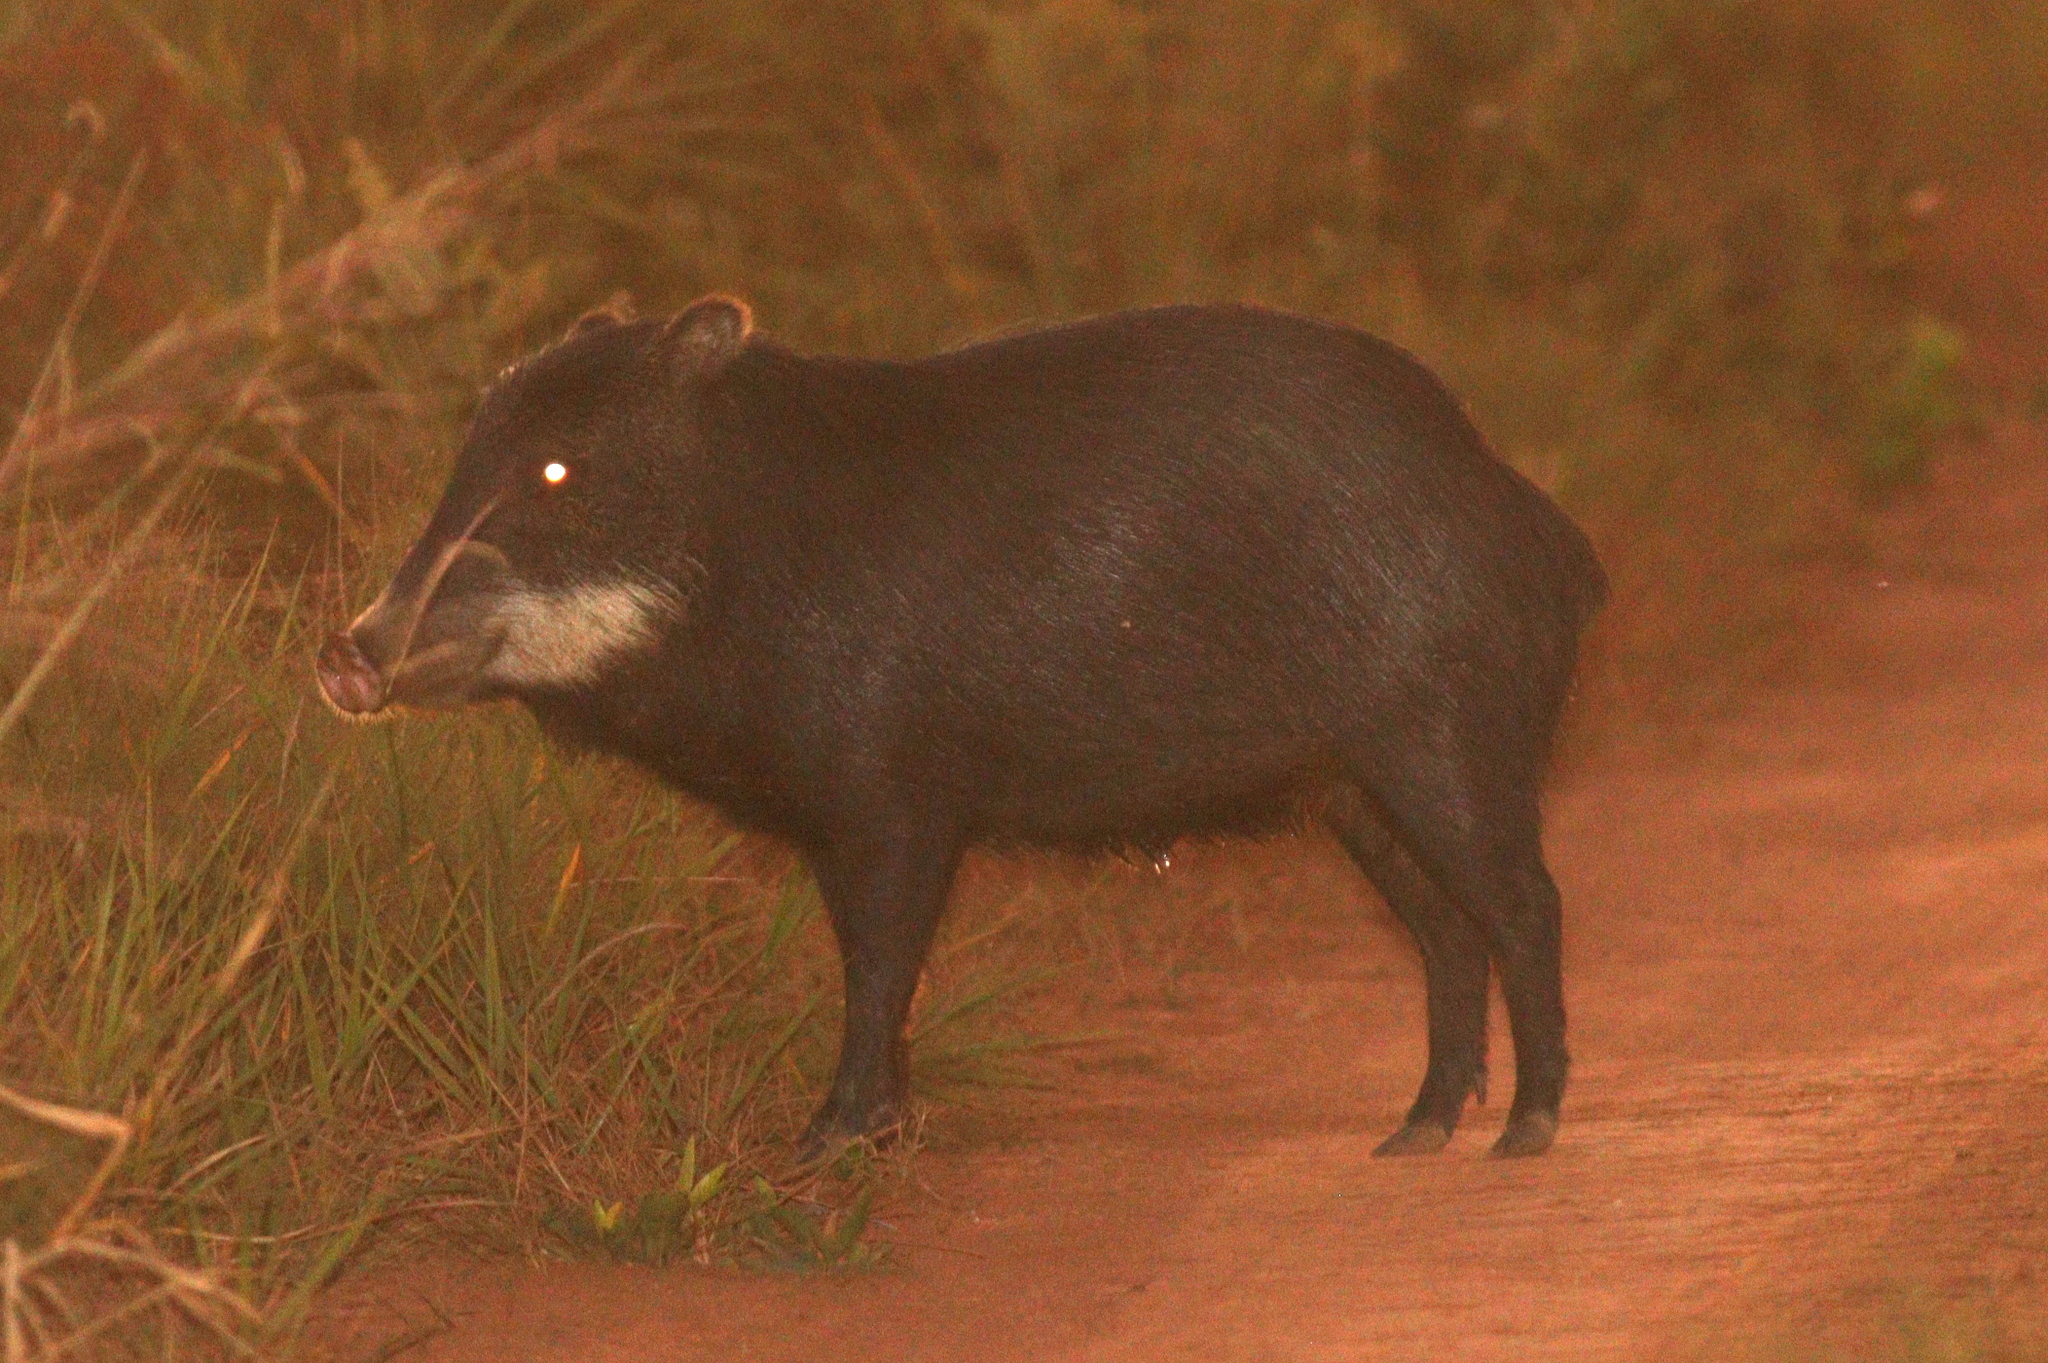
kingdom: Animalia
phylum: Chordata
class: Mammalia
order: Artiodactyla
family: Tayassuidae
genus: Tayassu
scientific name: Tayassu pecari
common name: White-lipped peccary
